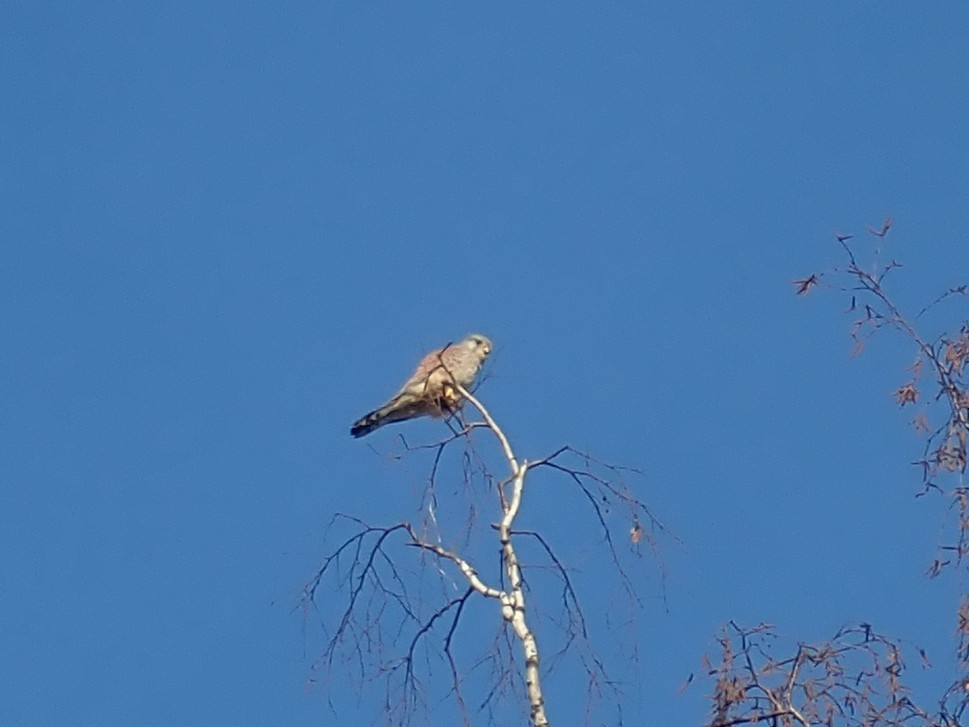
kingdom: Animalia
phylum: Chordata
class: Aves
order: Falconiformes
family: Falconidae
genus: Falco
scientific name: Falco tinnunculus
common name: Common kestrel
